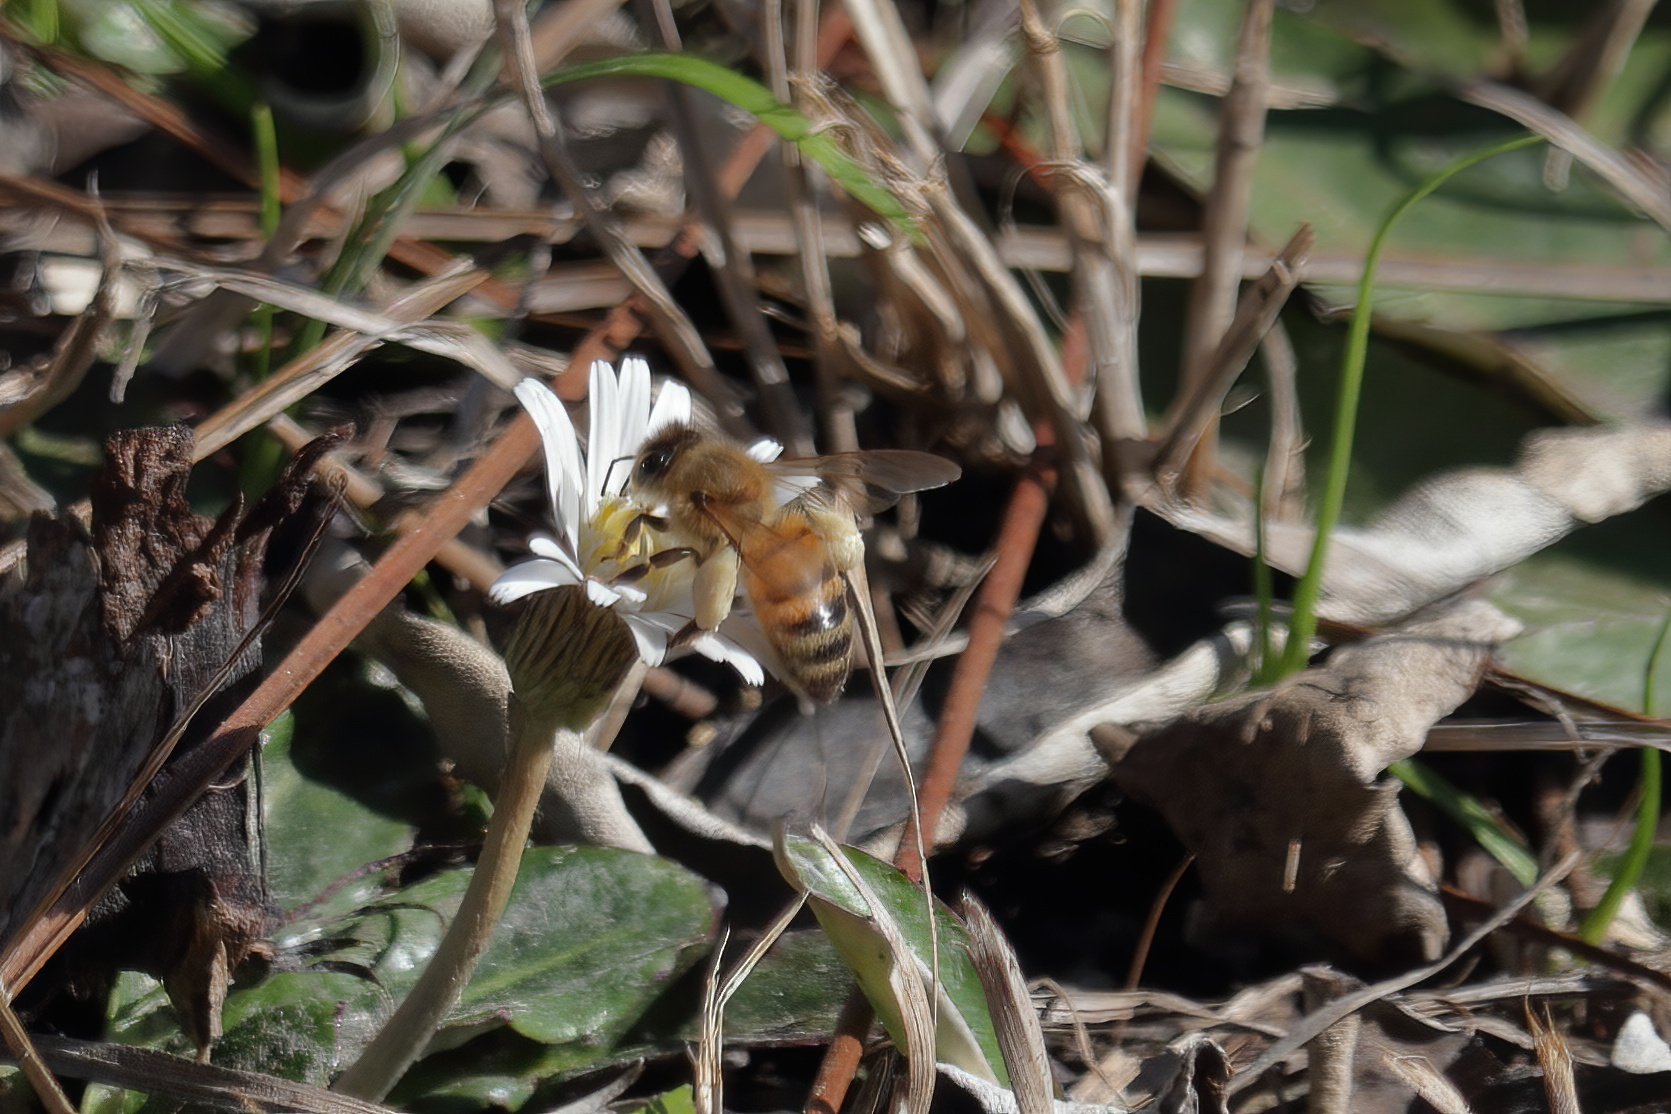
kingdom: Animalia
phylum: Arthropoda
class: Insecta
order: Hymenoptera
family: Apidae
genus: Apis
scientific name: Apis mellifera
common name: Honey bee
